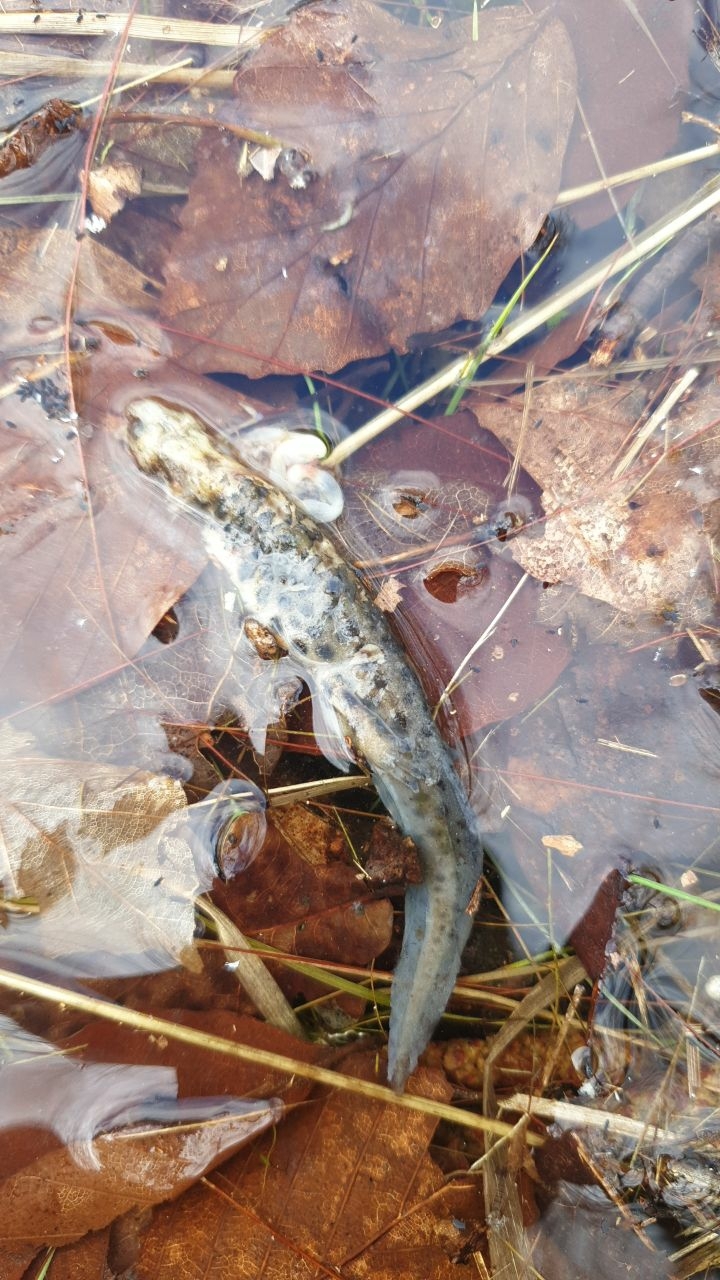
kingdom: Animalia
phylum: Chordata
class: Amphibia
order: Caudata
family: Salamandridae
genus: Lissotriton
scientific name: Lissotriton vulgaris
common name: Smooth newt
